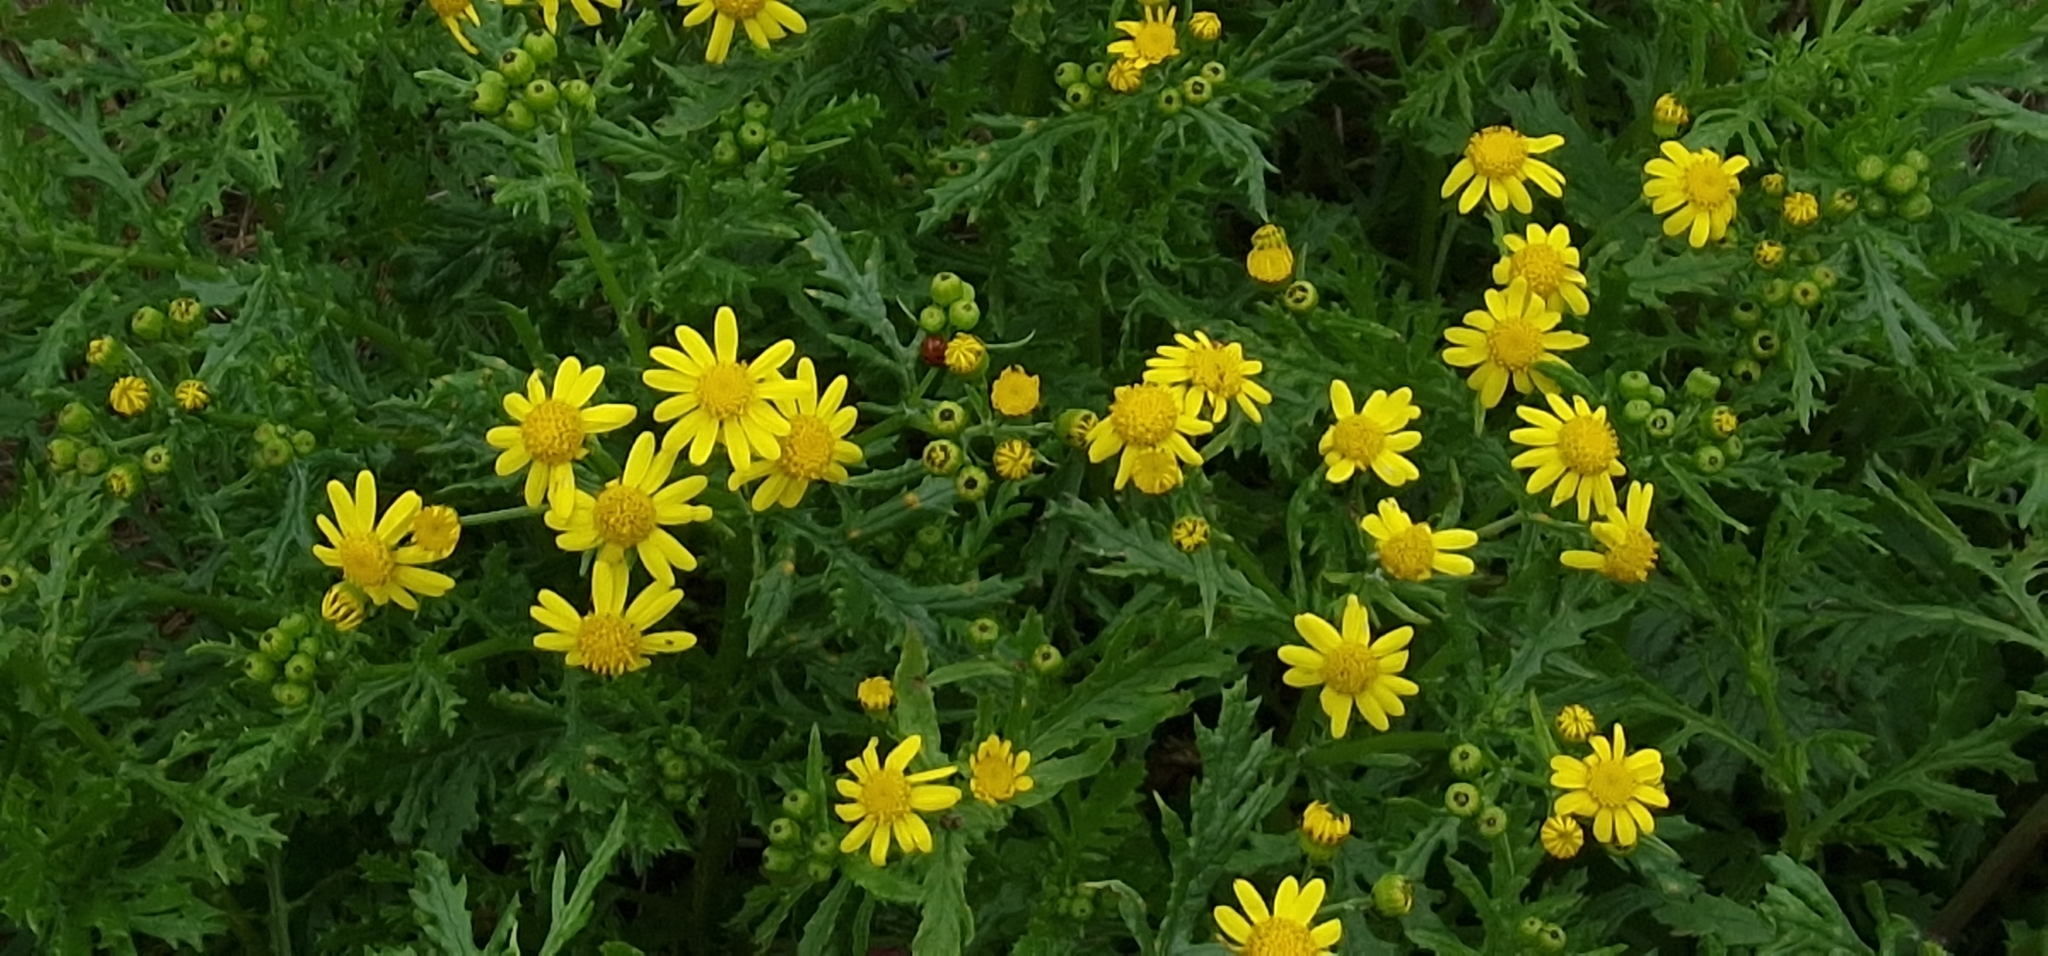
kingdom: Plantae
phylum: Tracheophyta
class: Magnoliopsida
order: Asterales
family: Asteraceae
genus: Senecio
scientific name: Senecio squalidus
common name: Oxford ragwort
